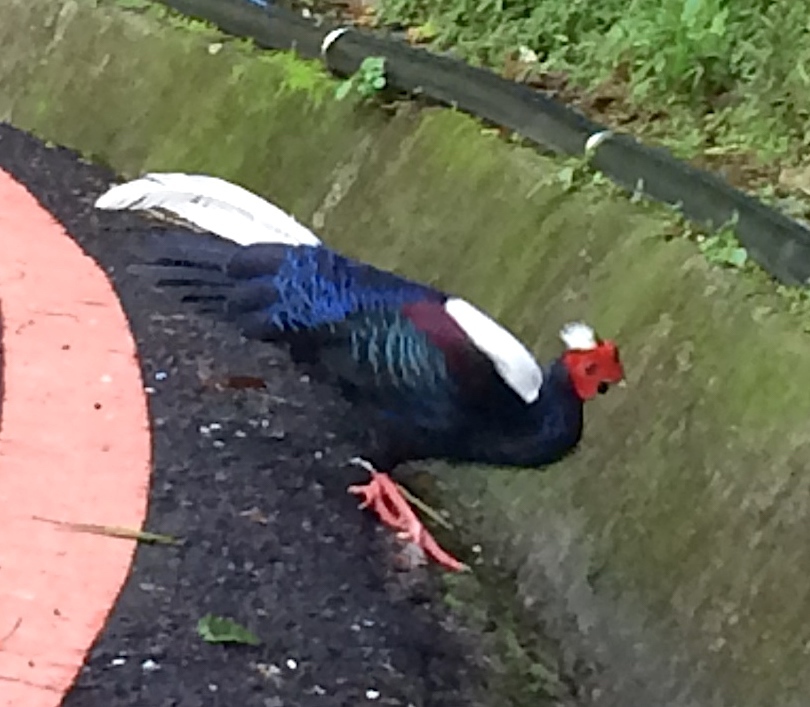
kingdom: Animalia
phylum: Chordata
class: Aves
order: Galliformes
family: Phasianidae
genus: Lophura
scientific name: Lophura swinhoii
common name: Swinhoe's pheasant
